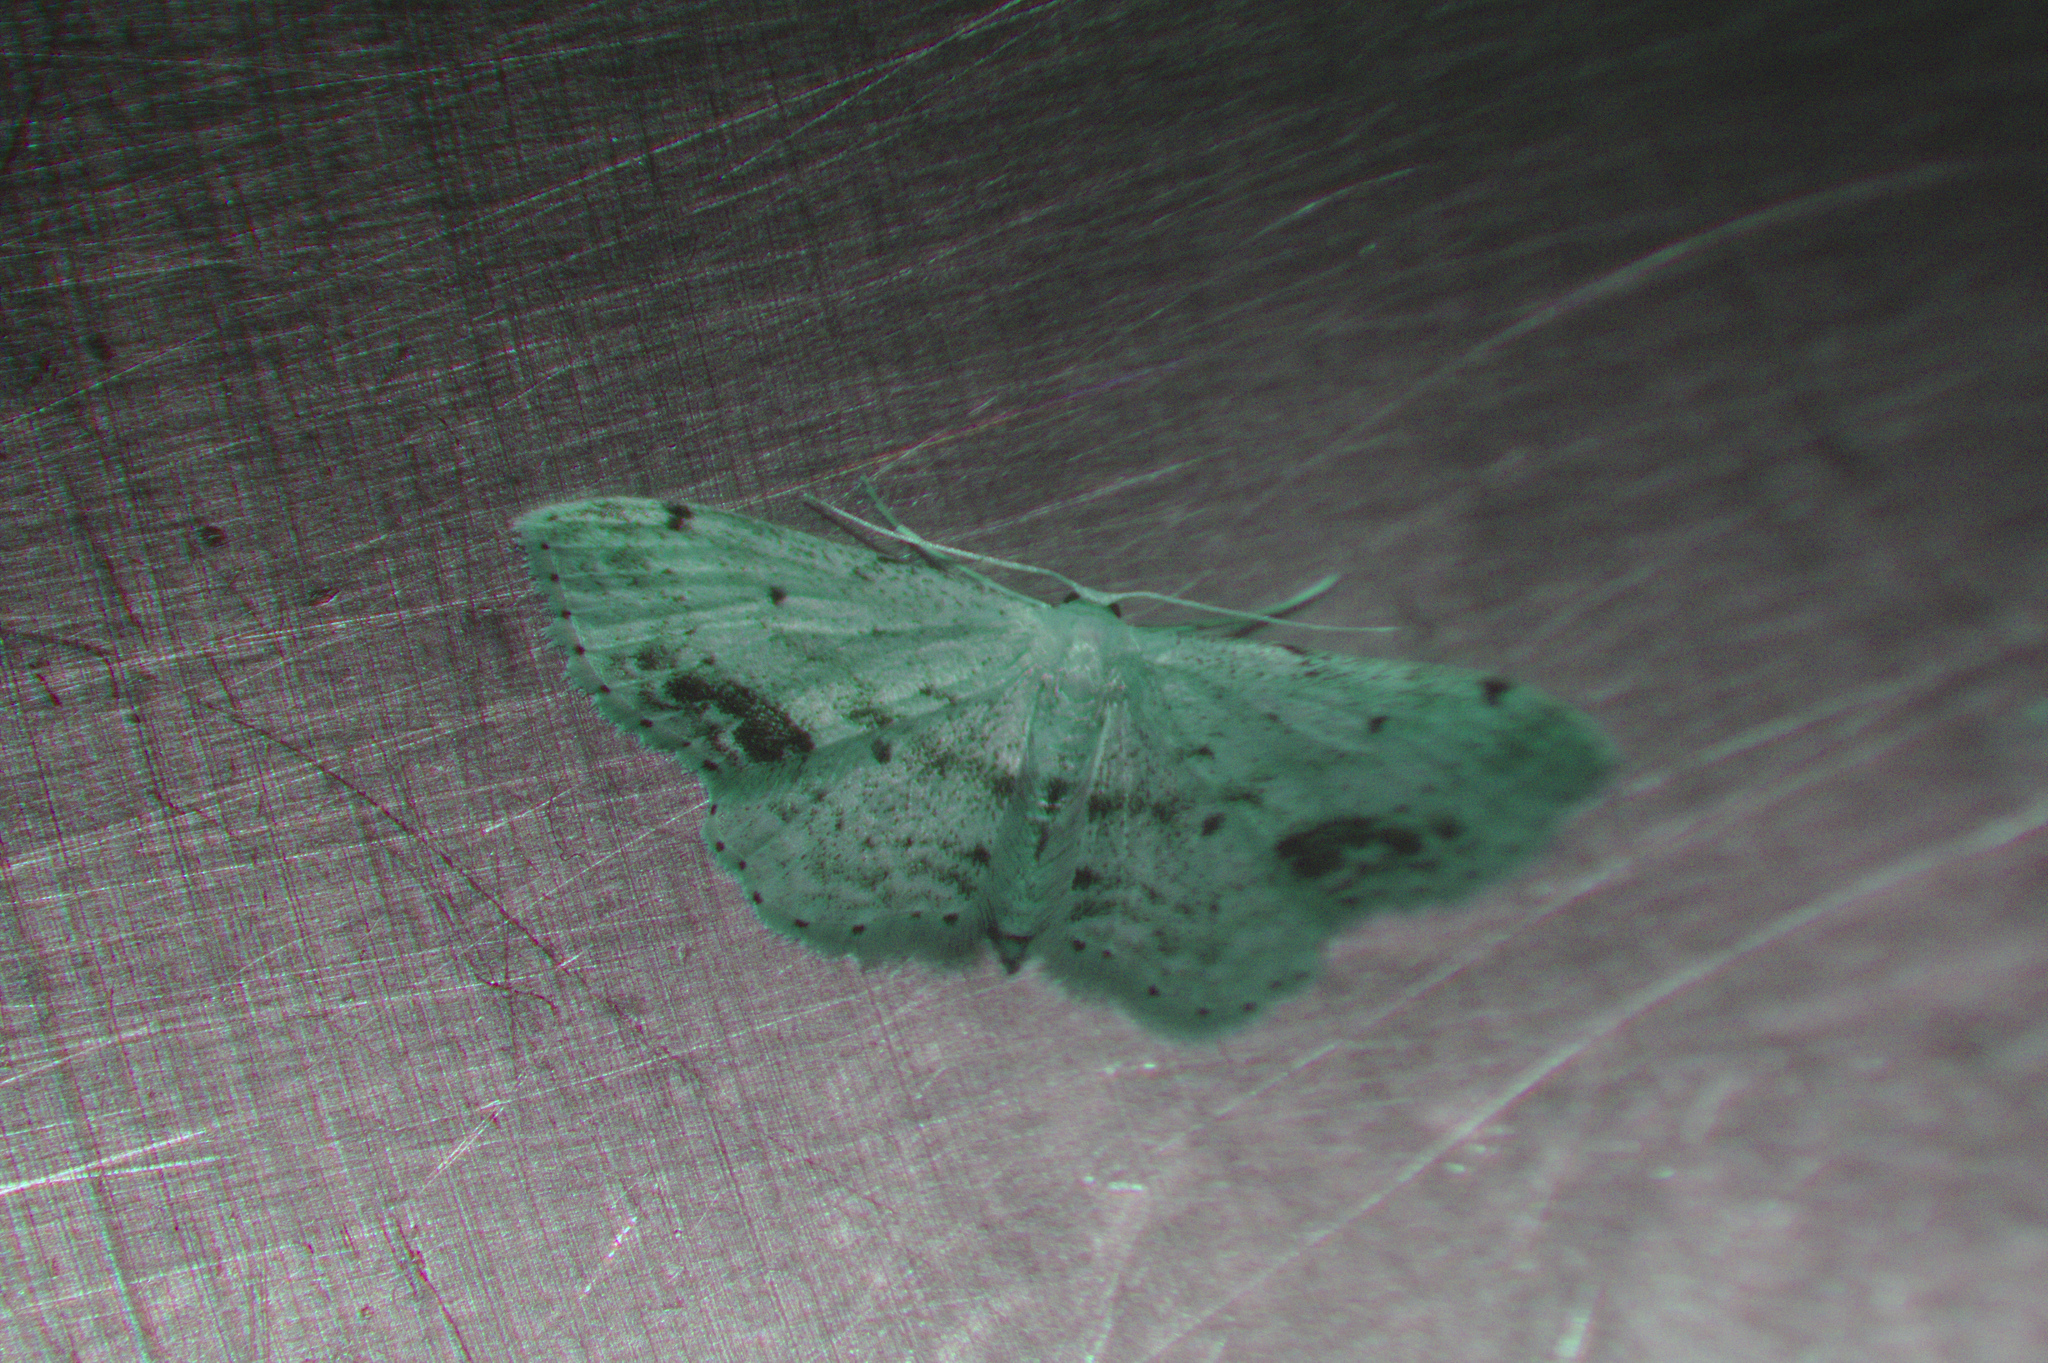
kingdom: Animalia
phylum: Arthropoda
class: Insecta
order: Lepidoptera
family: Geometridae
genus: Idaea
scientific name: Idaea dimidiata
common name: Single-dotted wave
